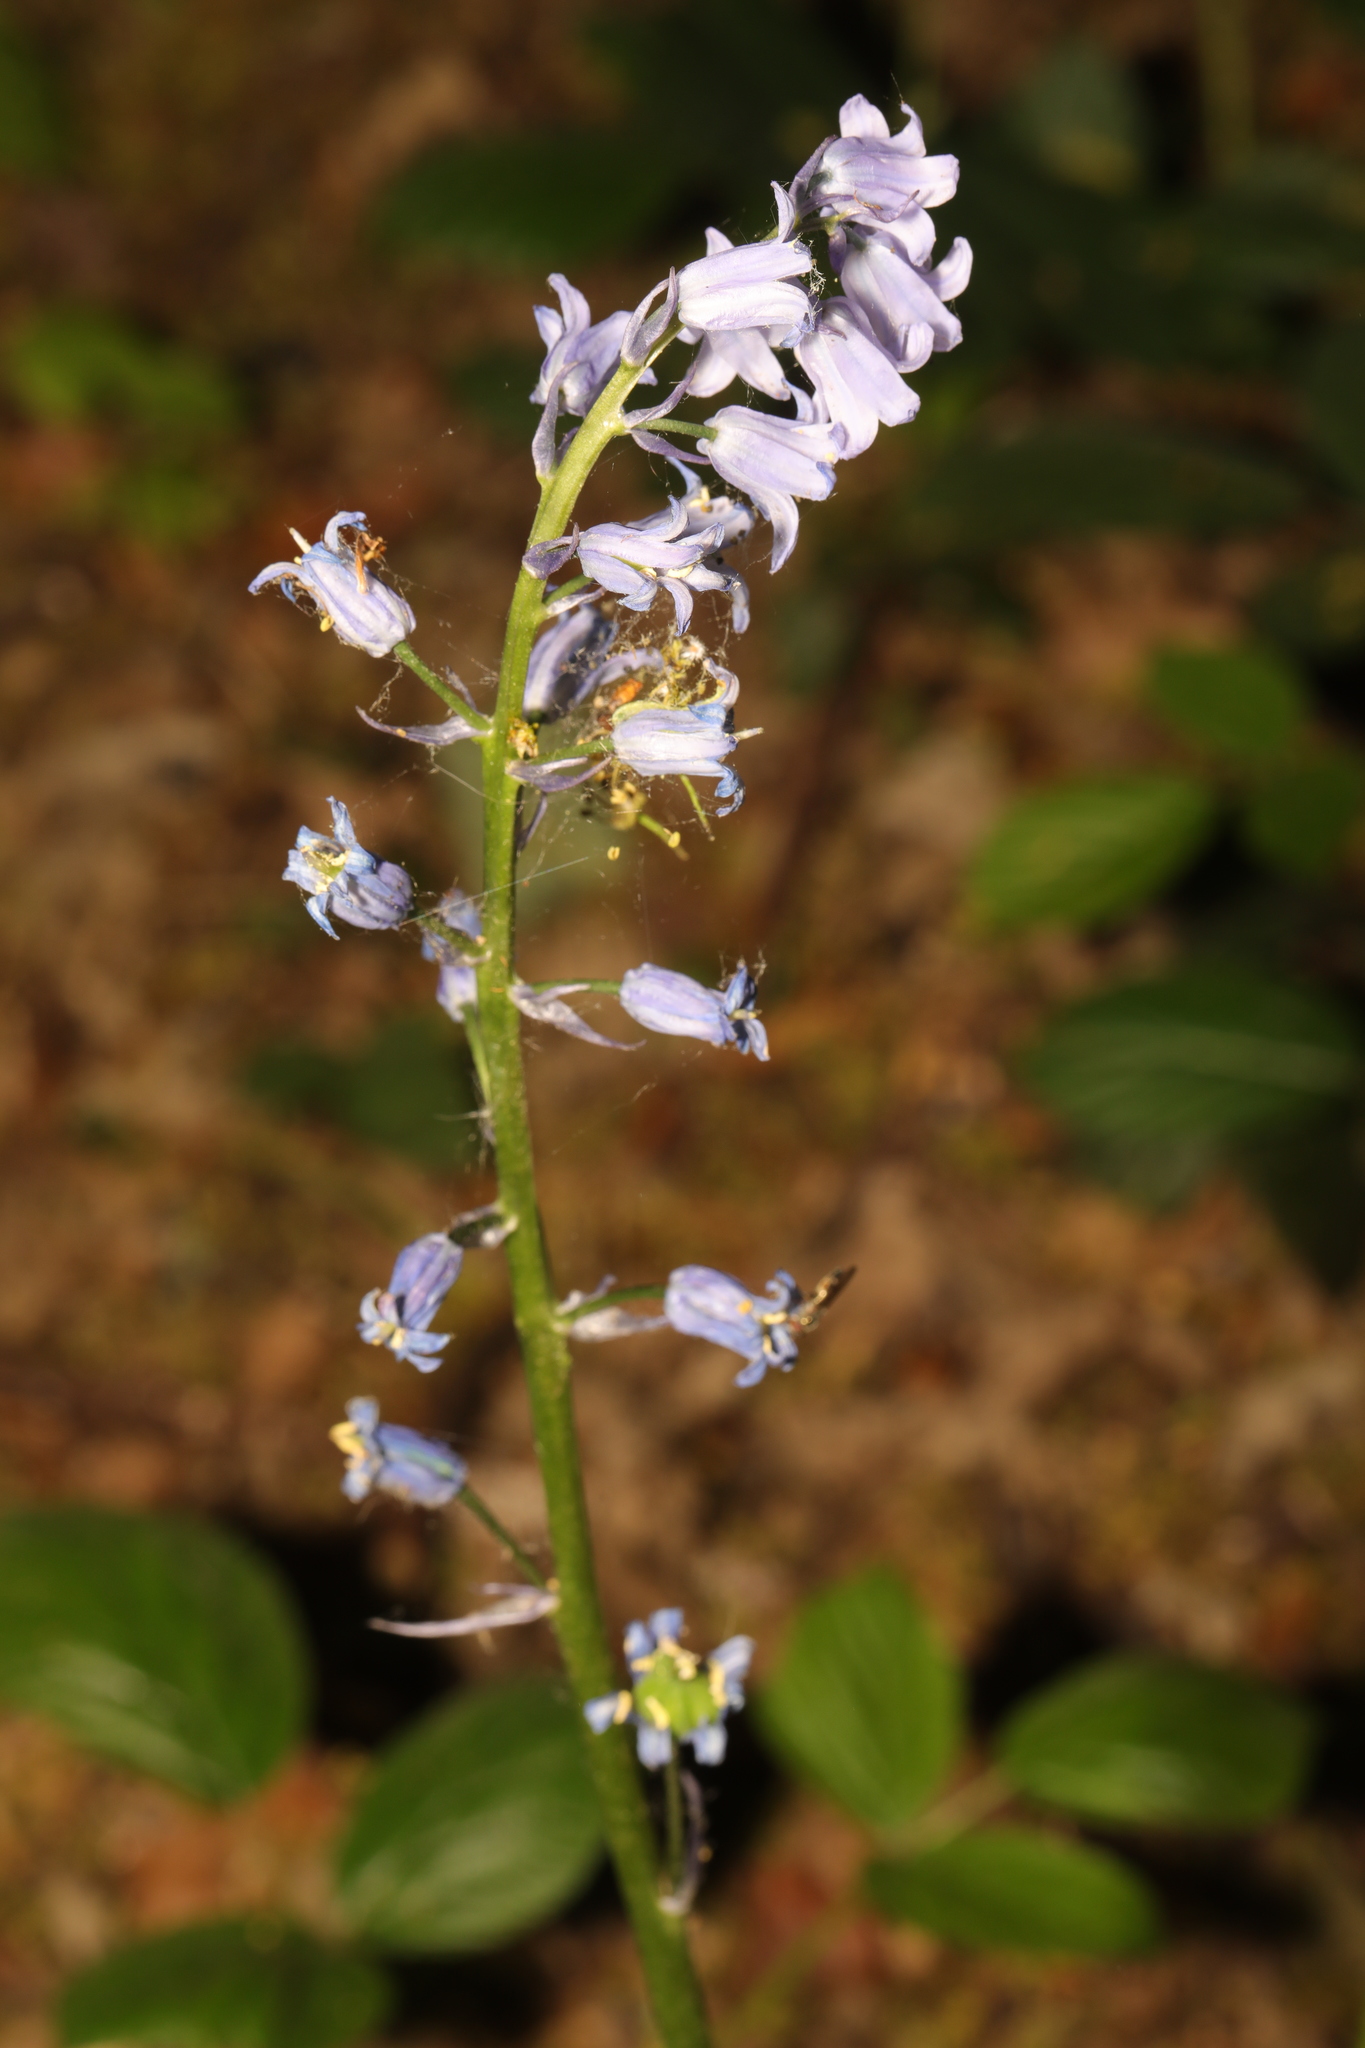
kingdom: Plantae
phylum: Tracheophyta
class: Liliopsida
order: Asparagales
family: Asparagaceae
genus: Hyacinthoides
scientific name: Hyacinthoides hispanica
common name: Spanish bluebell
